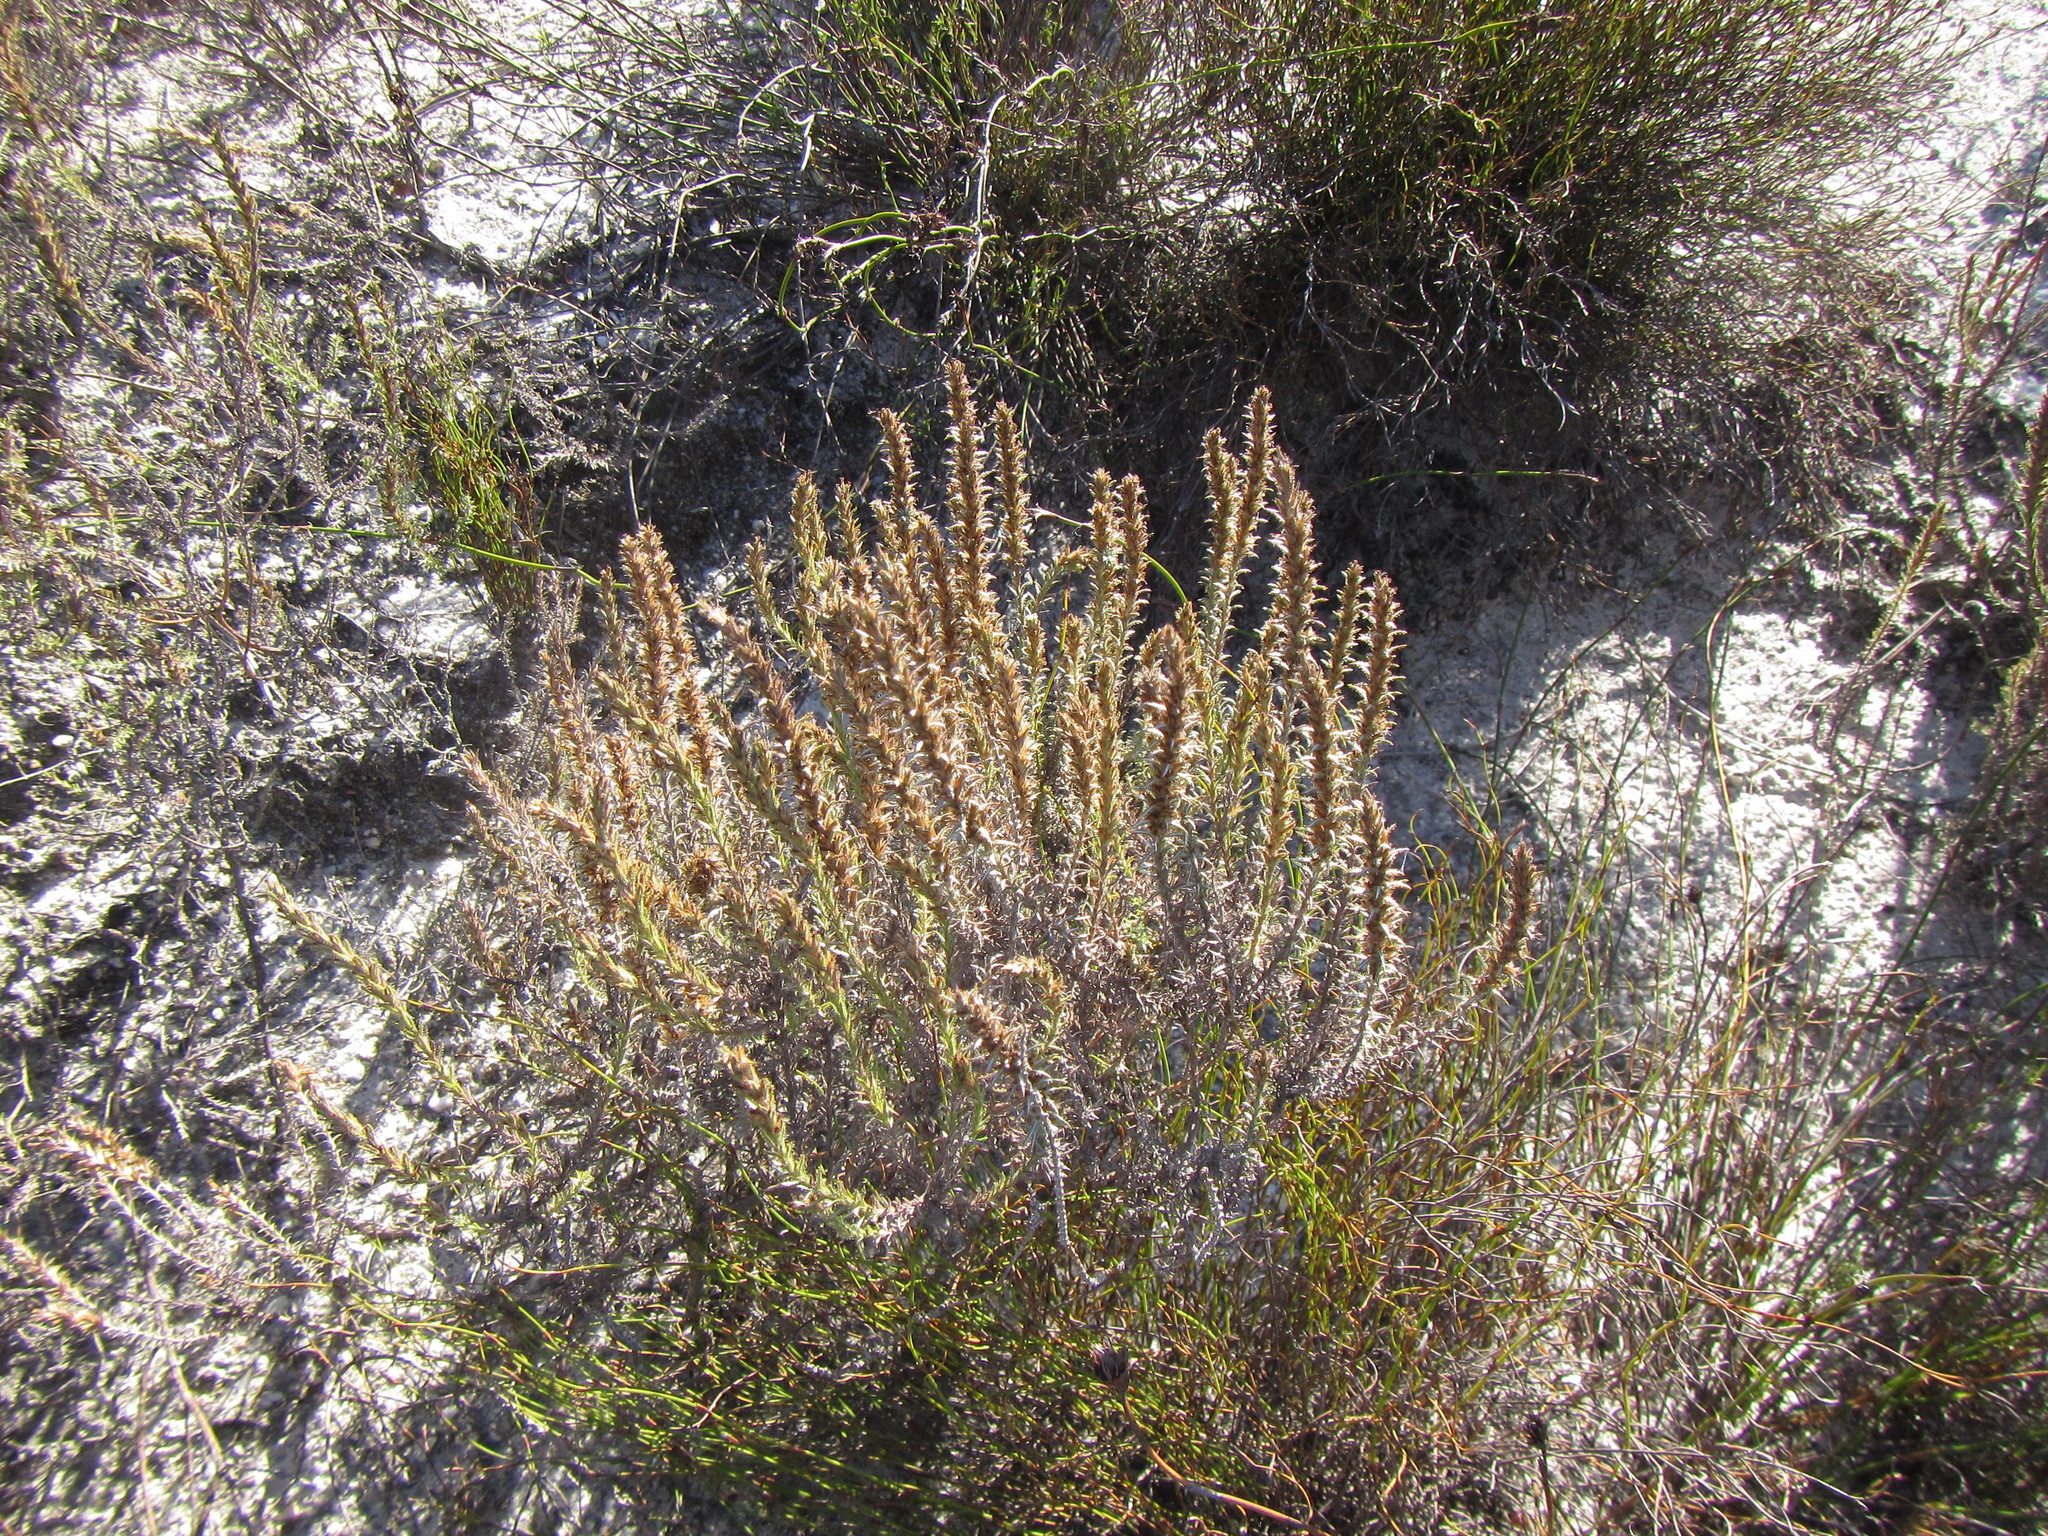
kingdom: Plantae
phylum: Tracheophyta
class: Magnoliopsida
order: Asterales
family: Asteraceae
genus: Myrovernix
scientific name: Myrovernix glandulosus
